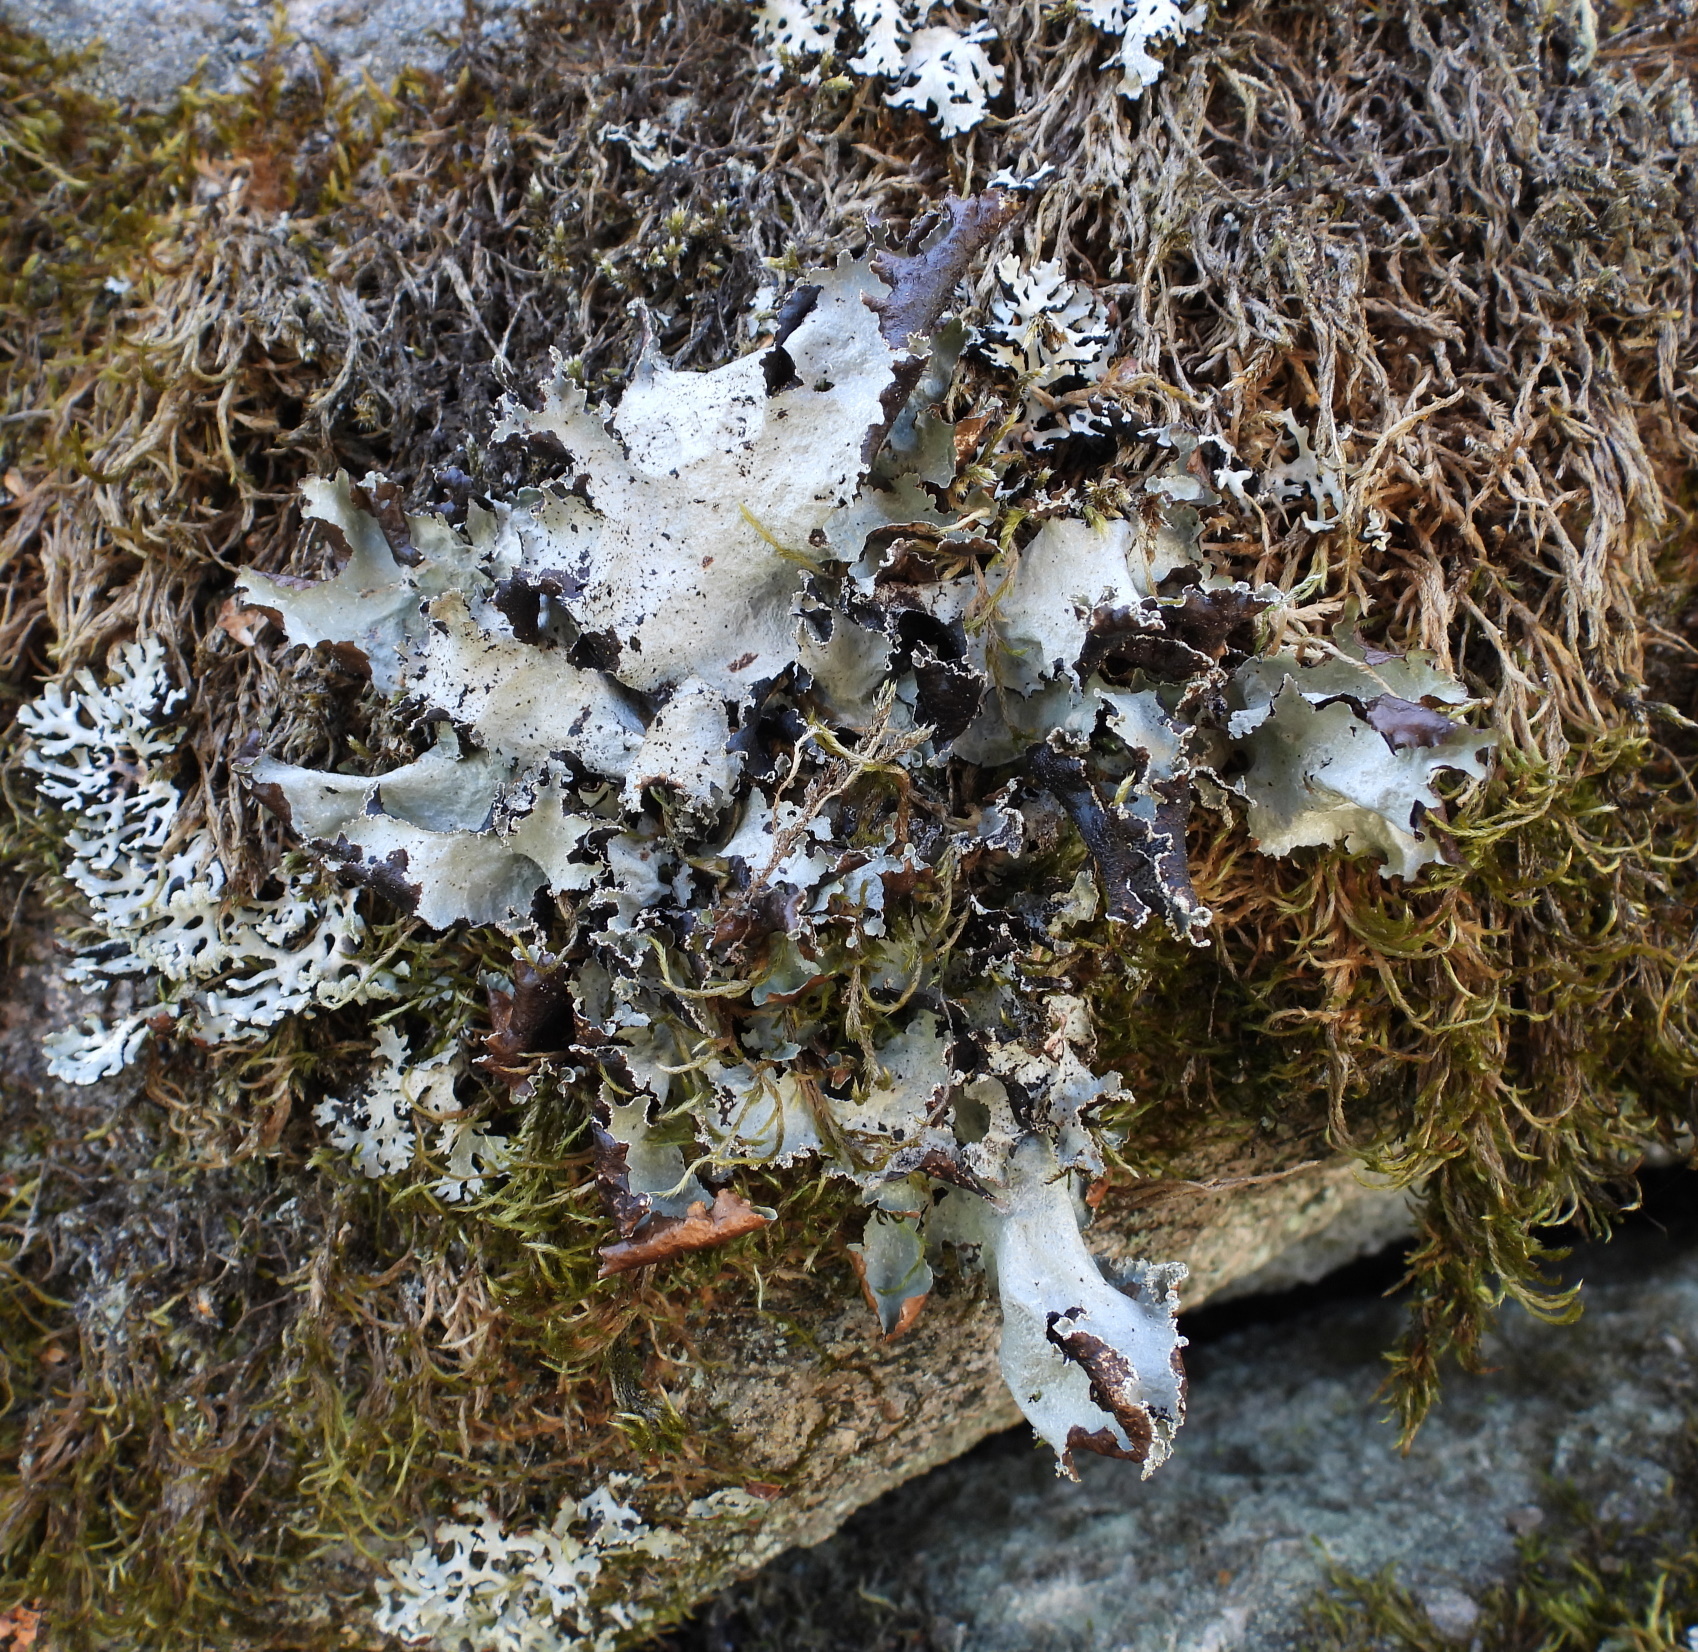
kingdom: Fungi
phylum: Ascomycota
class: Lecanoromycetes
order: Lecanorales
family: Parmeliaceae
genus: Platismatia
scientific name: Platismatia glauca
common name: Varied rag lichen
